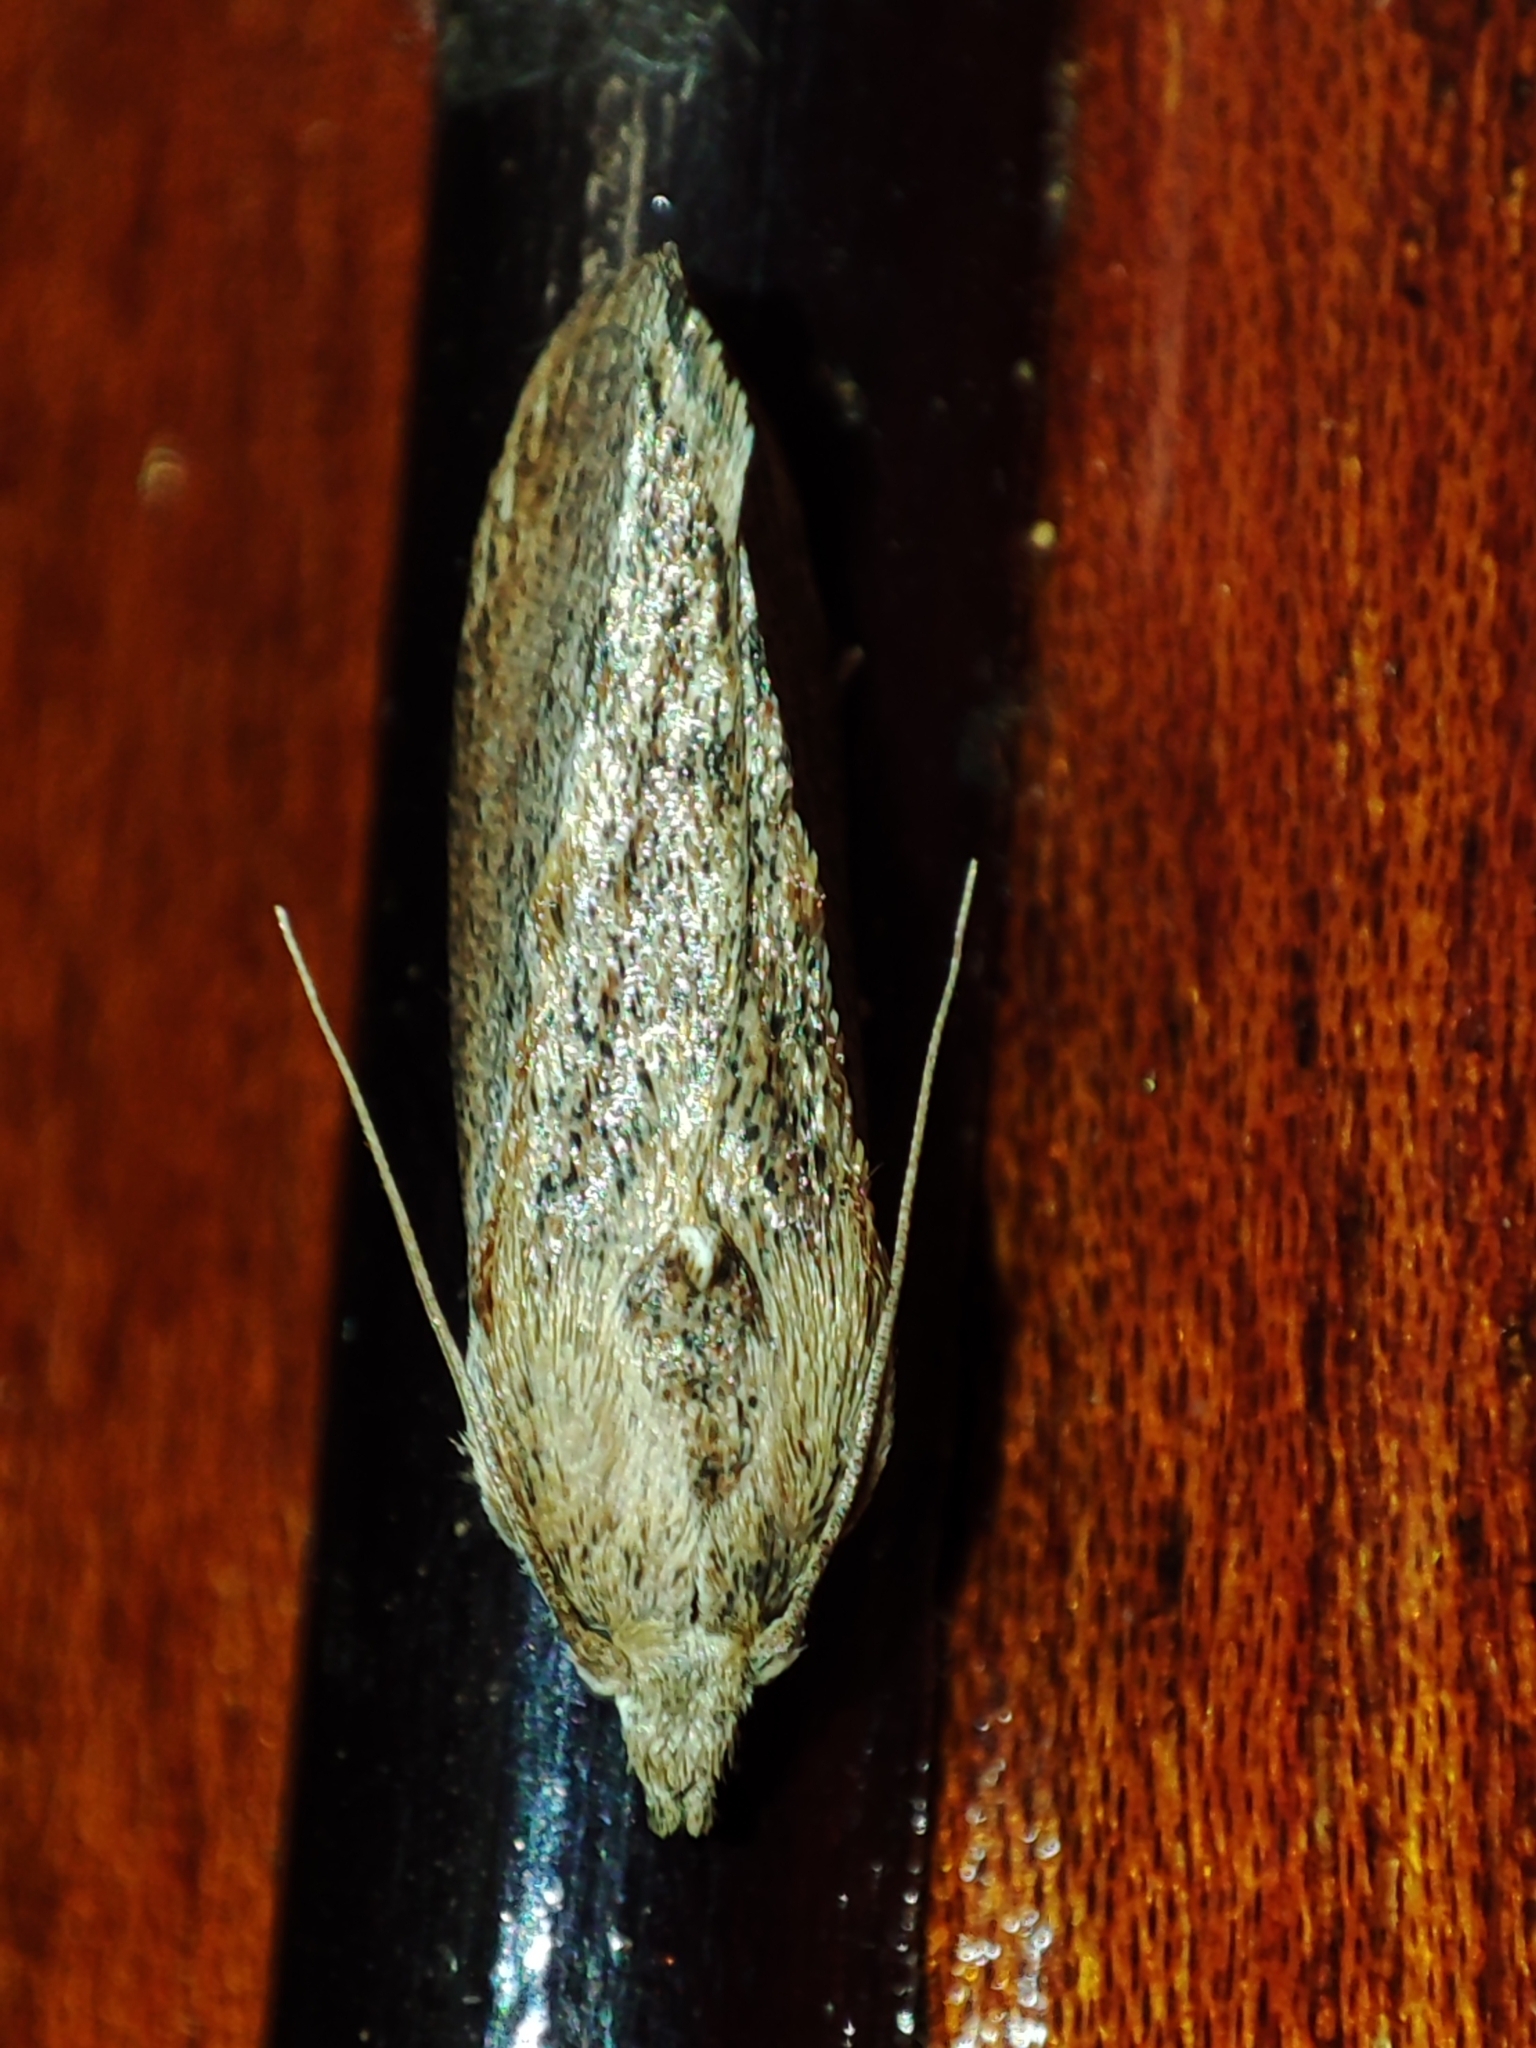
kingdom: Animalia
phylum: Arthropoda
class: Insecta
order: Lepidoptera
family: Pyralidae
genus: Galleria
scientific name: Galleria mellonella
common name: Greater wax moth
